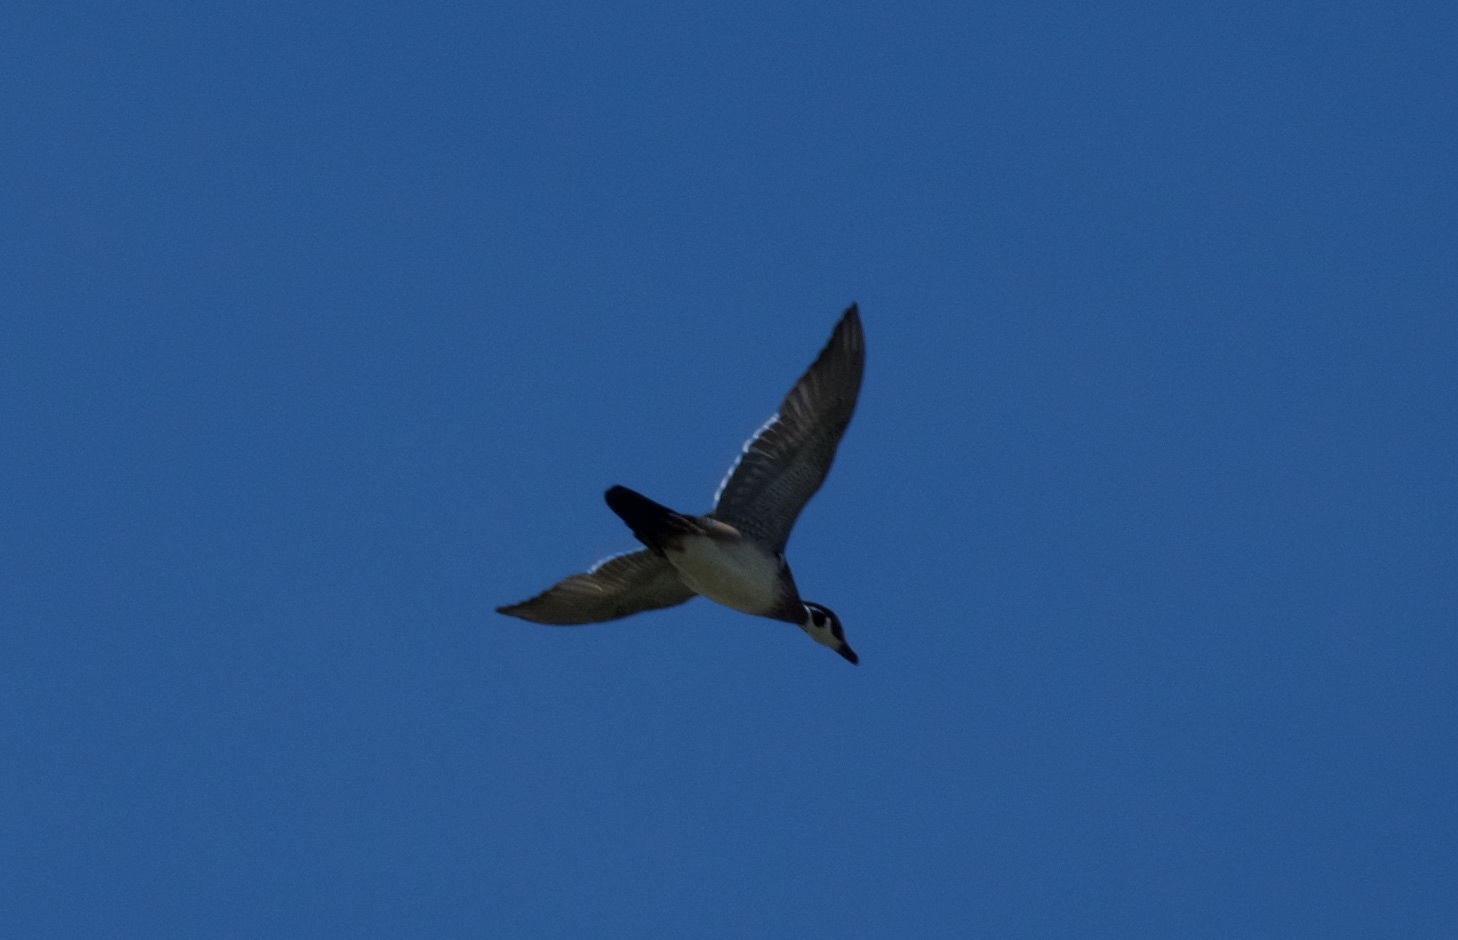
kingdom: Animalia
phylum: Chordata
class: Aves
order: Anseriformes
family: Anatidae
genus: Aix
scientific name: Aix sponsa
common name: Wood duck
